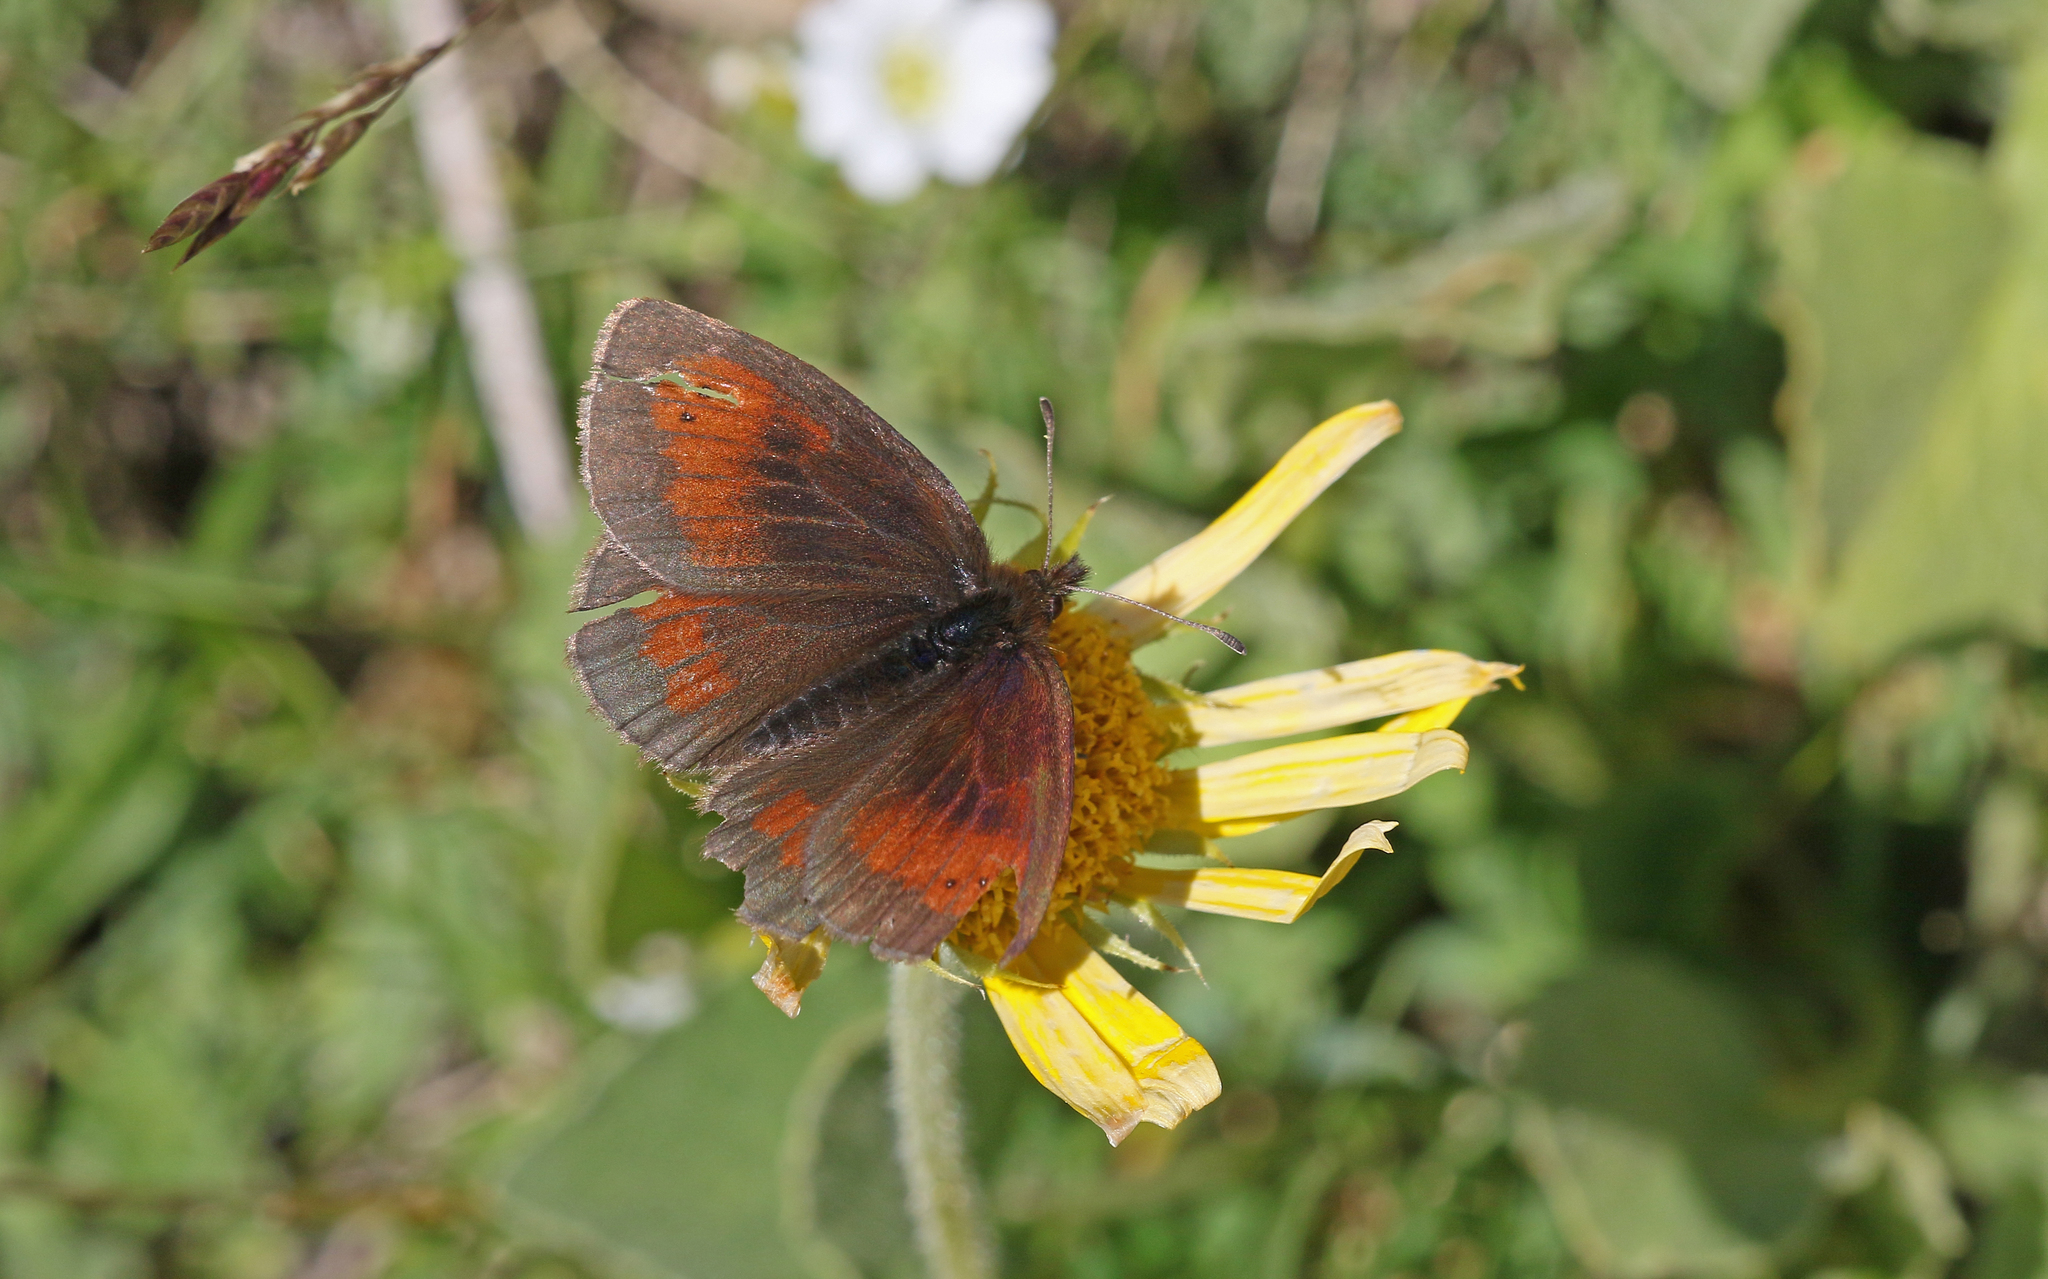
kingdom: Animalia
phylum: Arthropoda
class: Insecta
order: Lepidoptera
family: Nymphalidae
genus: Erebia
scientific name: Erebia mnestra
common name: Mnestra’s ringlet
